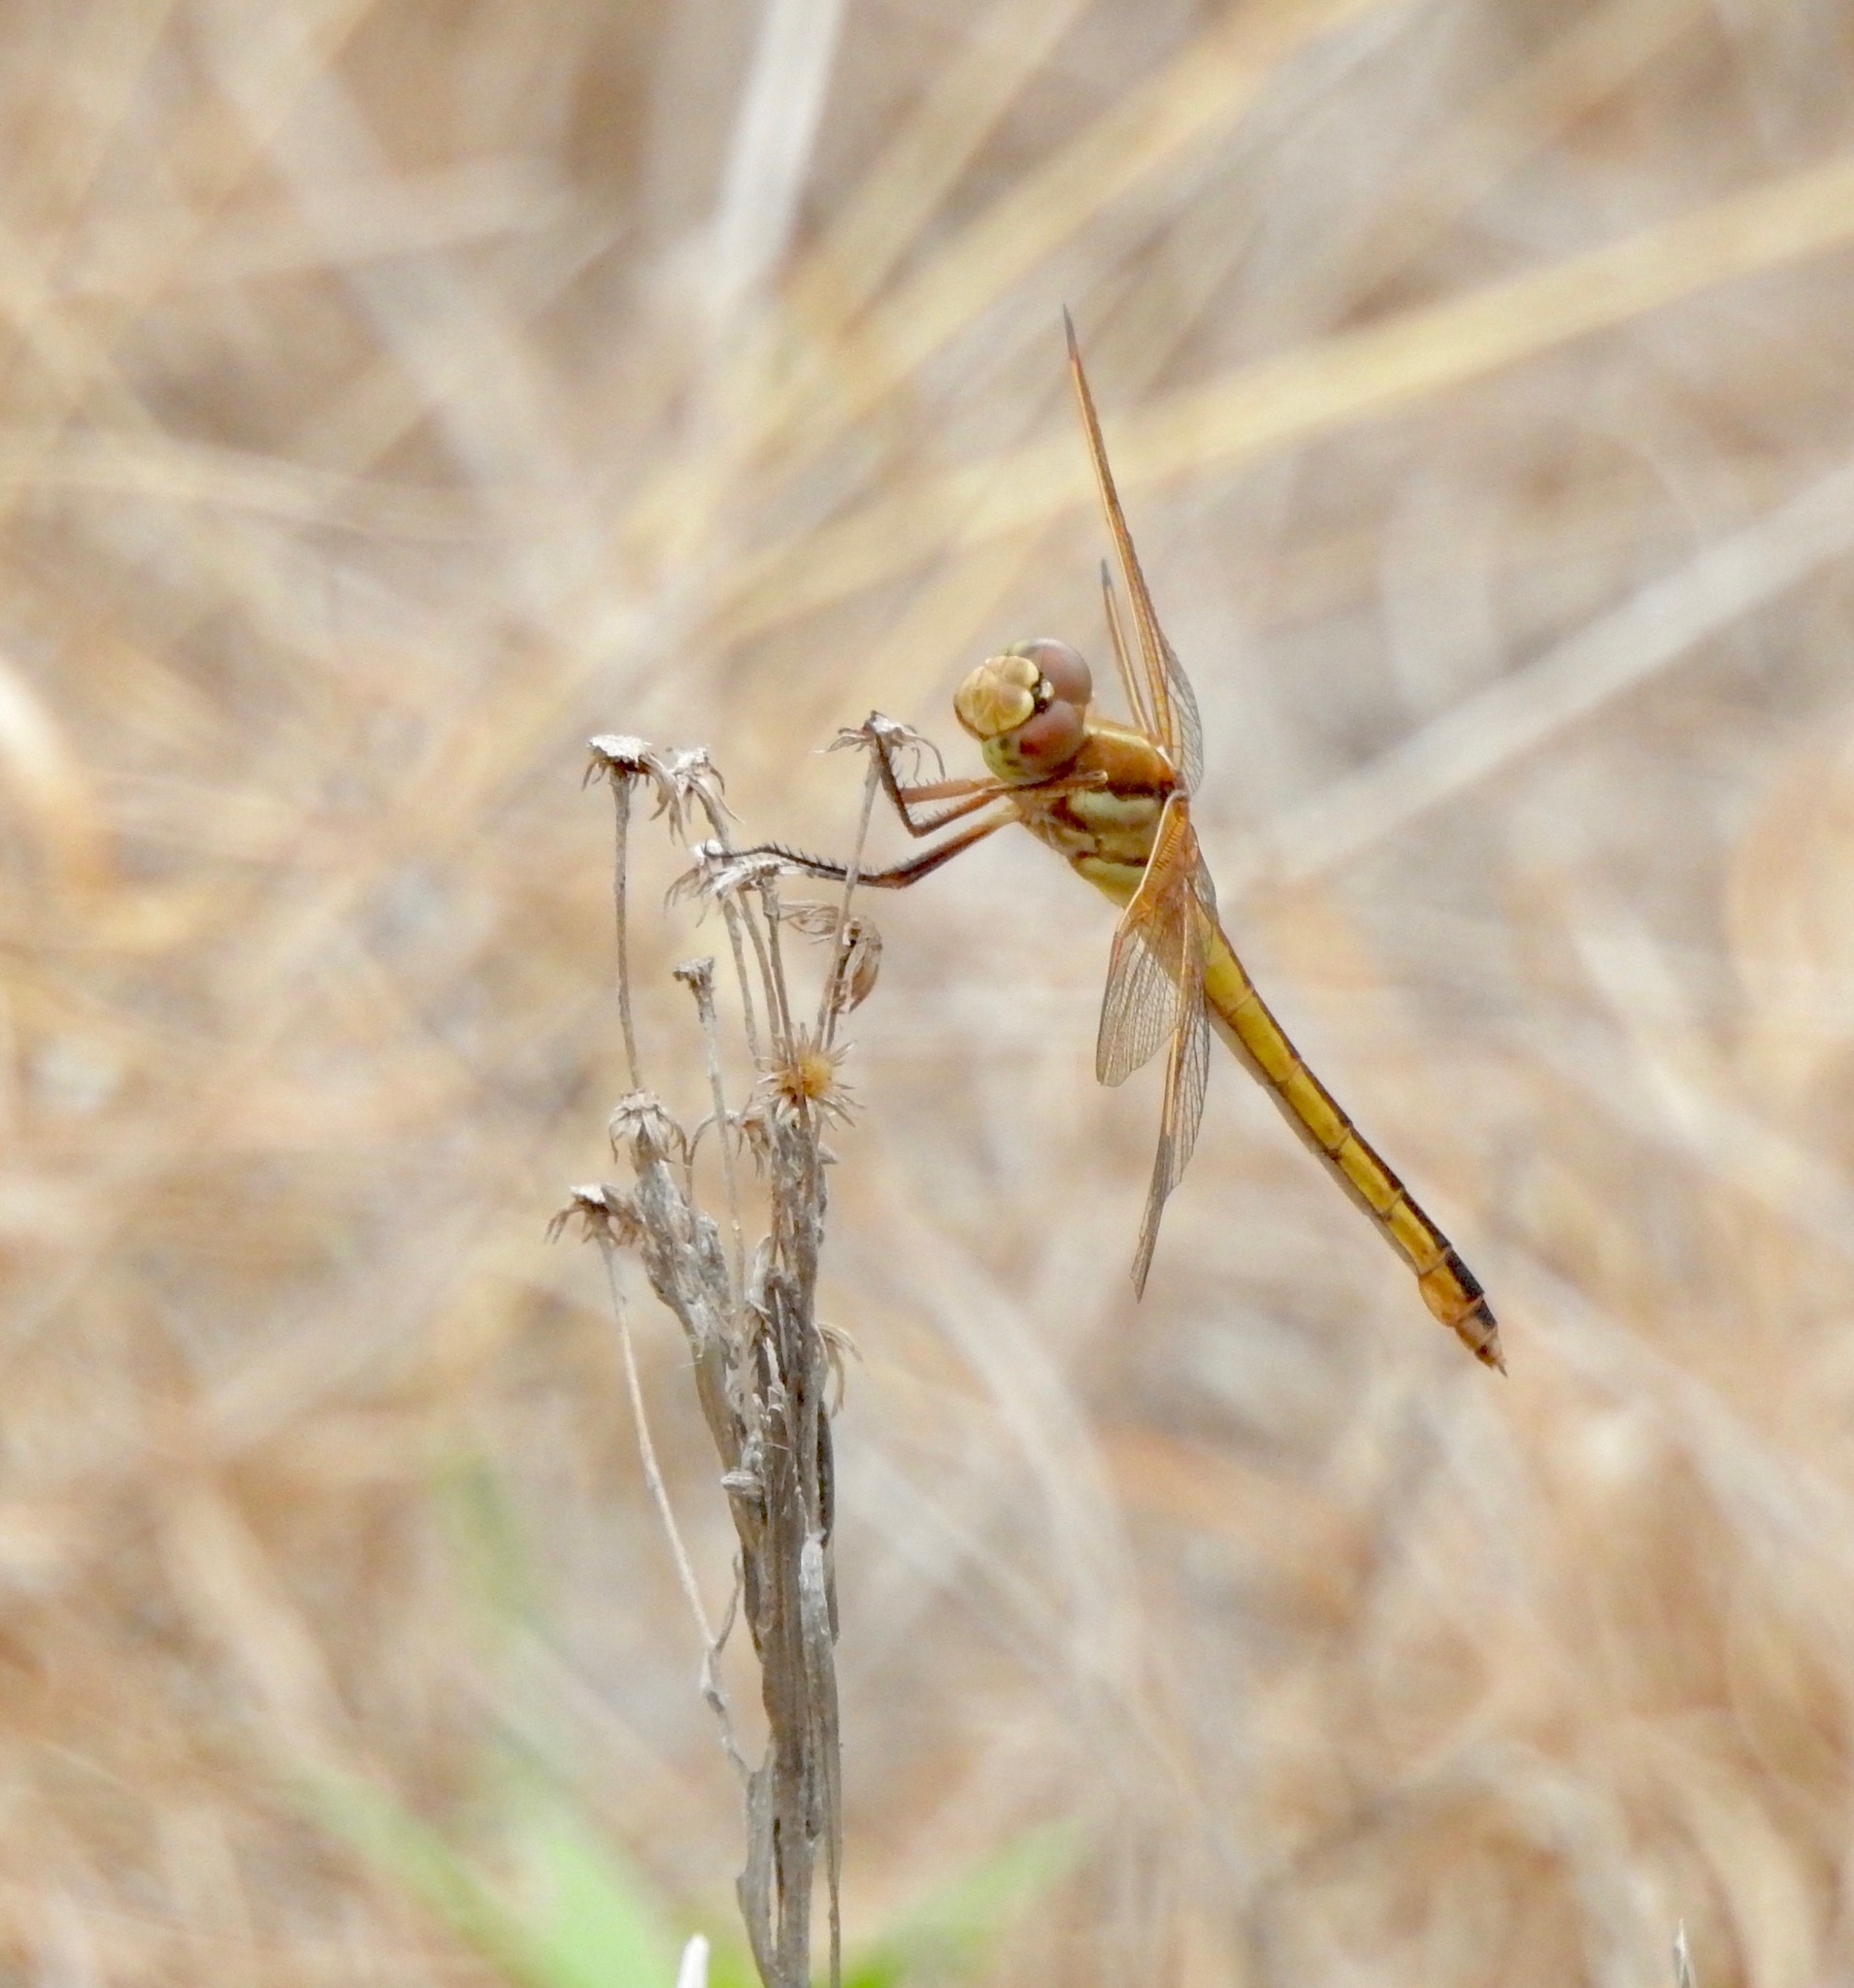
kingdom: Animalia
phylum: Arthropoda
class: Insecta
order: Odonata
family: Libellulidae
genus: Libellula
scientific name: Libellula auripennis
